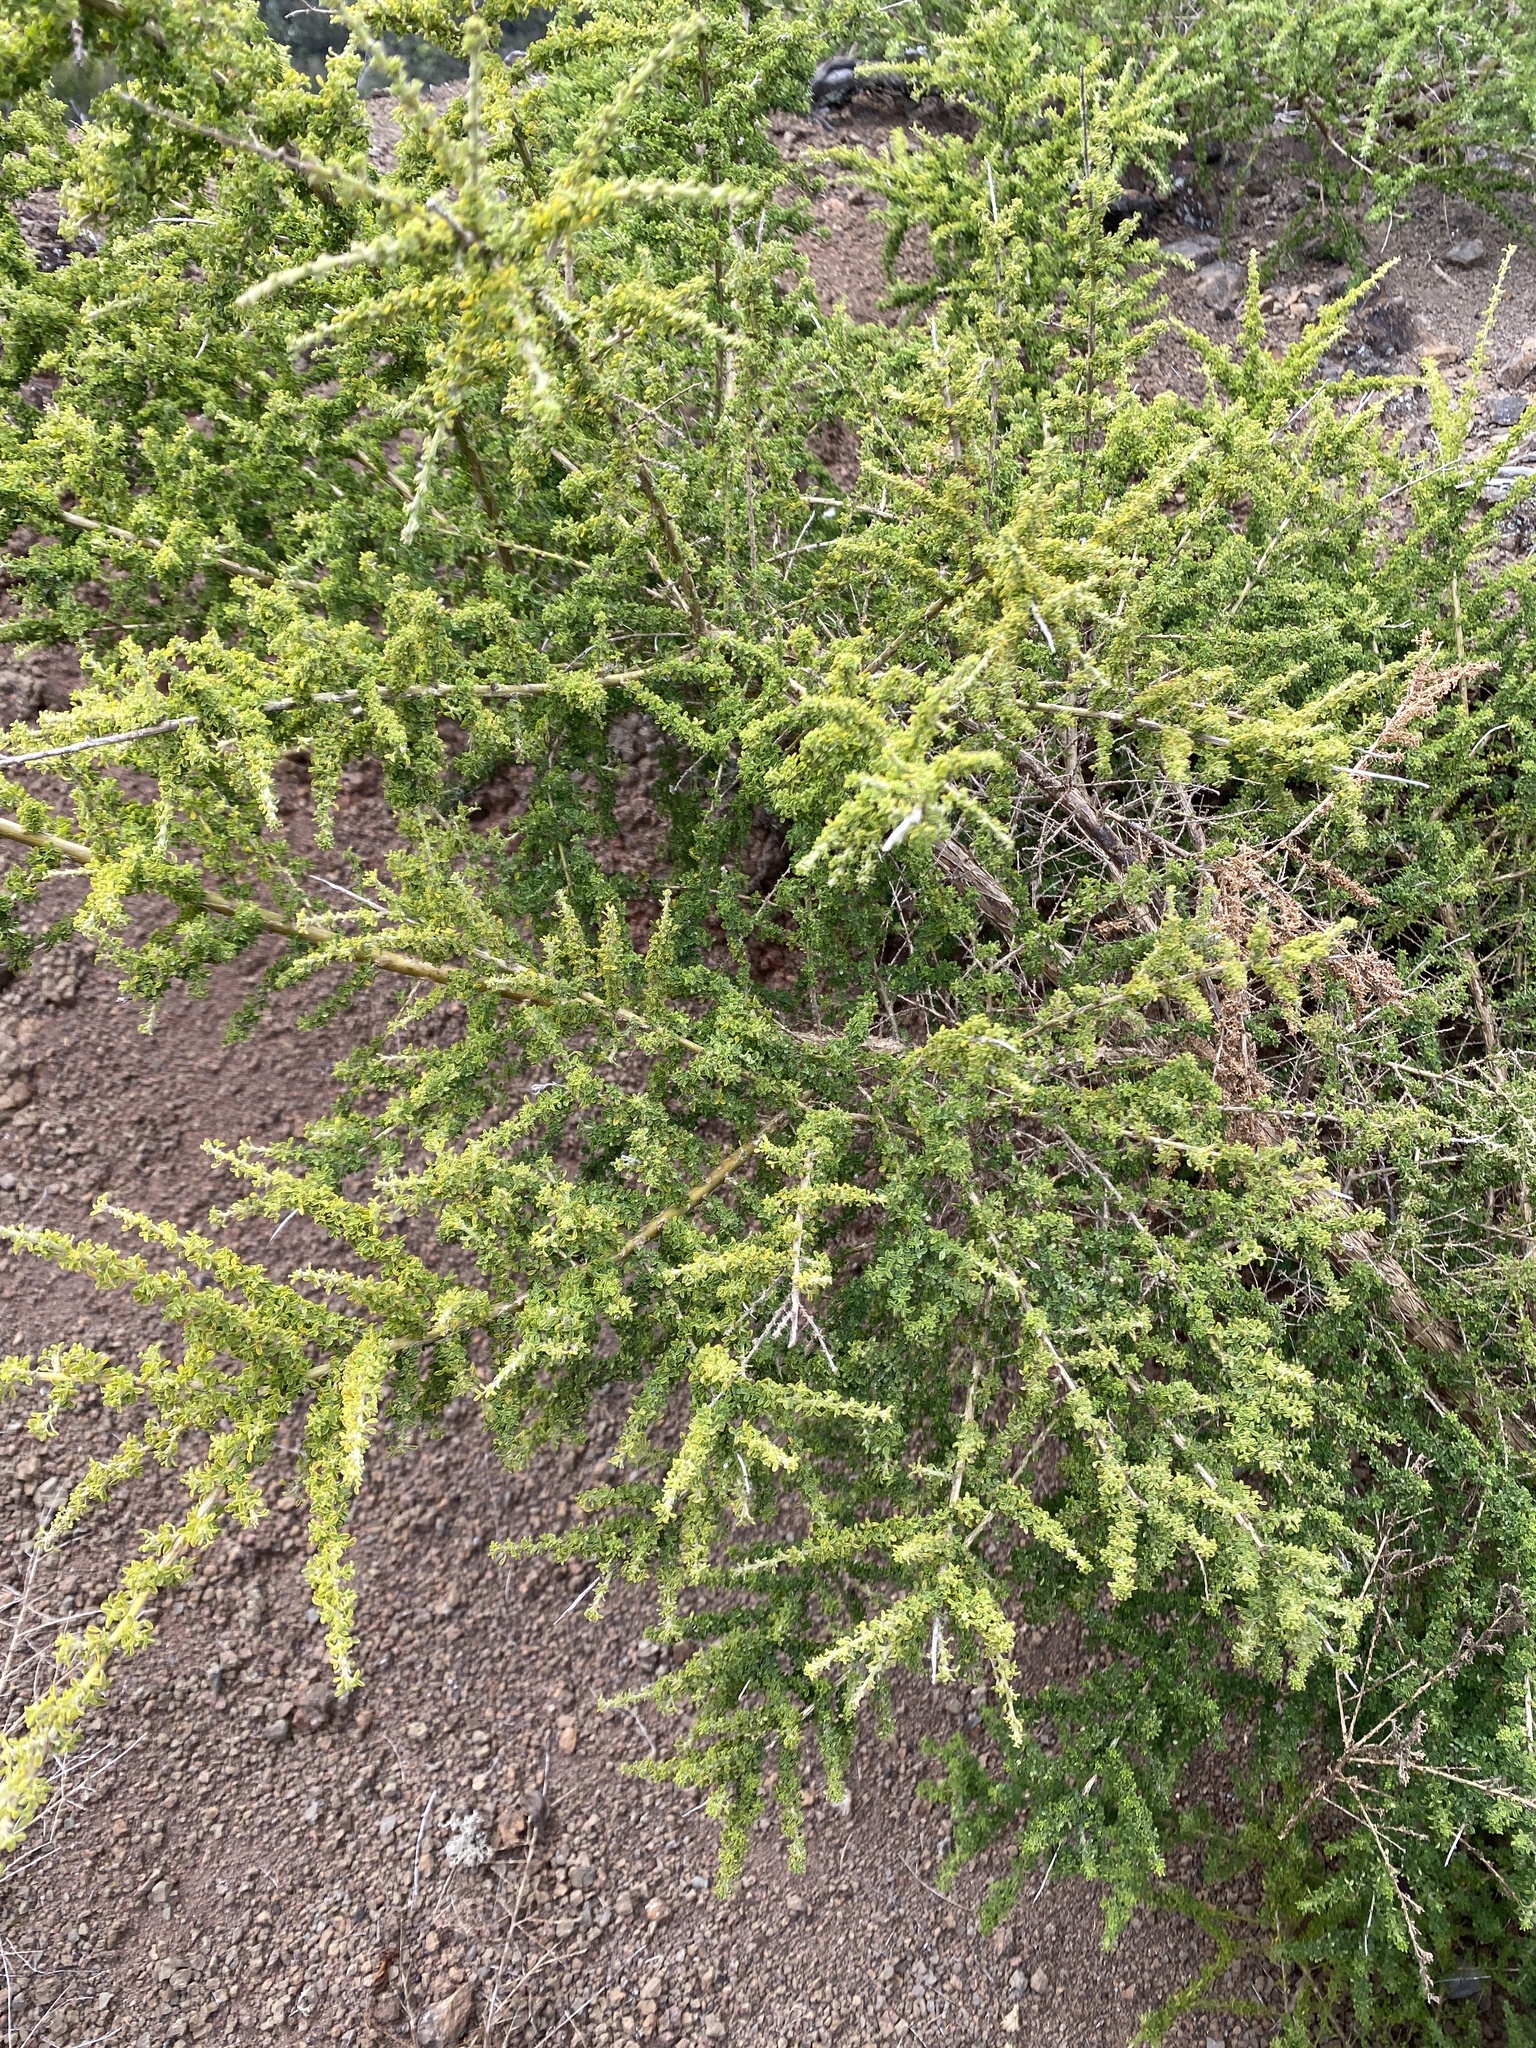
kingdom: Plantae
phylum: Tracheophyta
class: Magnoliopsida
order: Fabales
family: Fabaceae
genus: Adenocarpus
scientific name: Adenocarpus foliolosus
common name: Canary island flatpod
